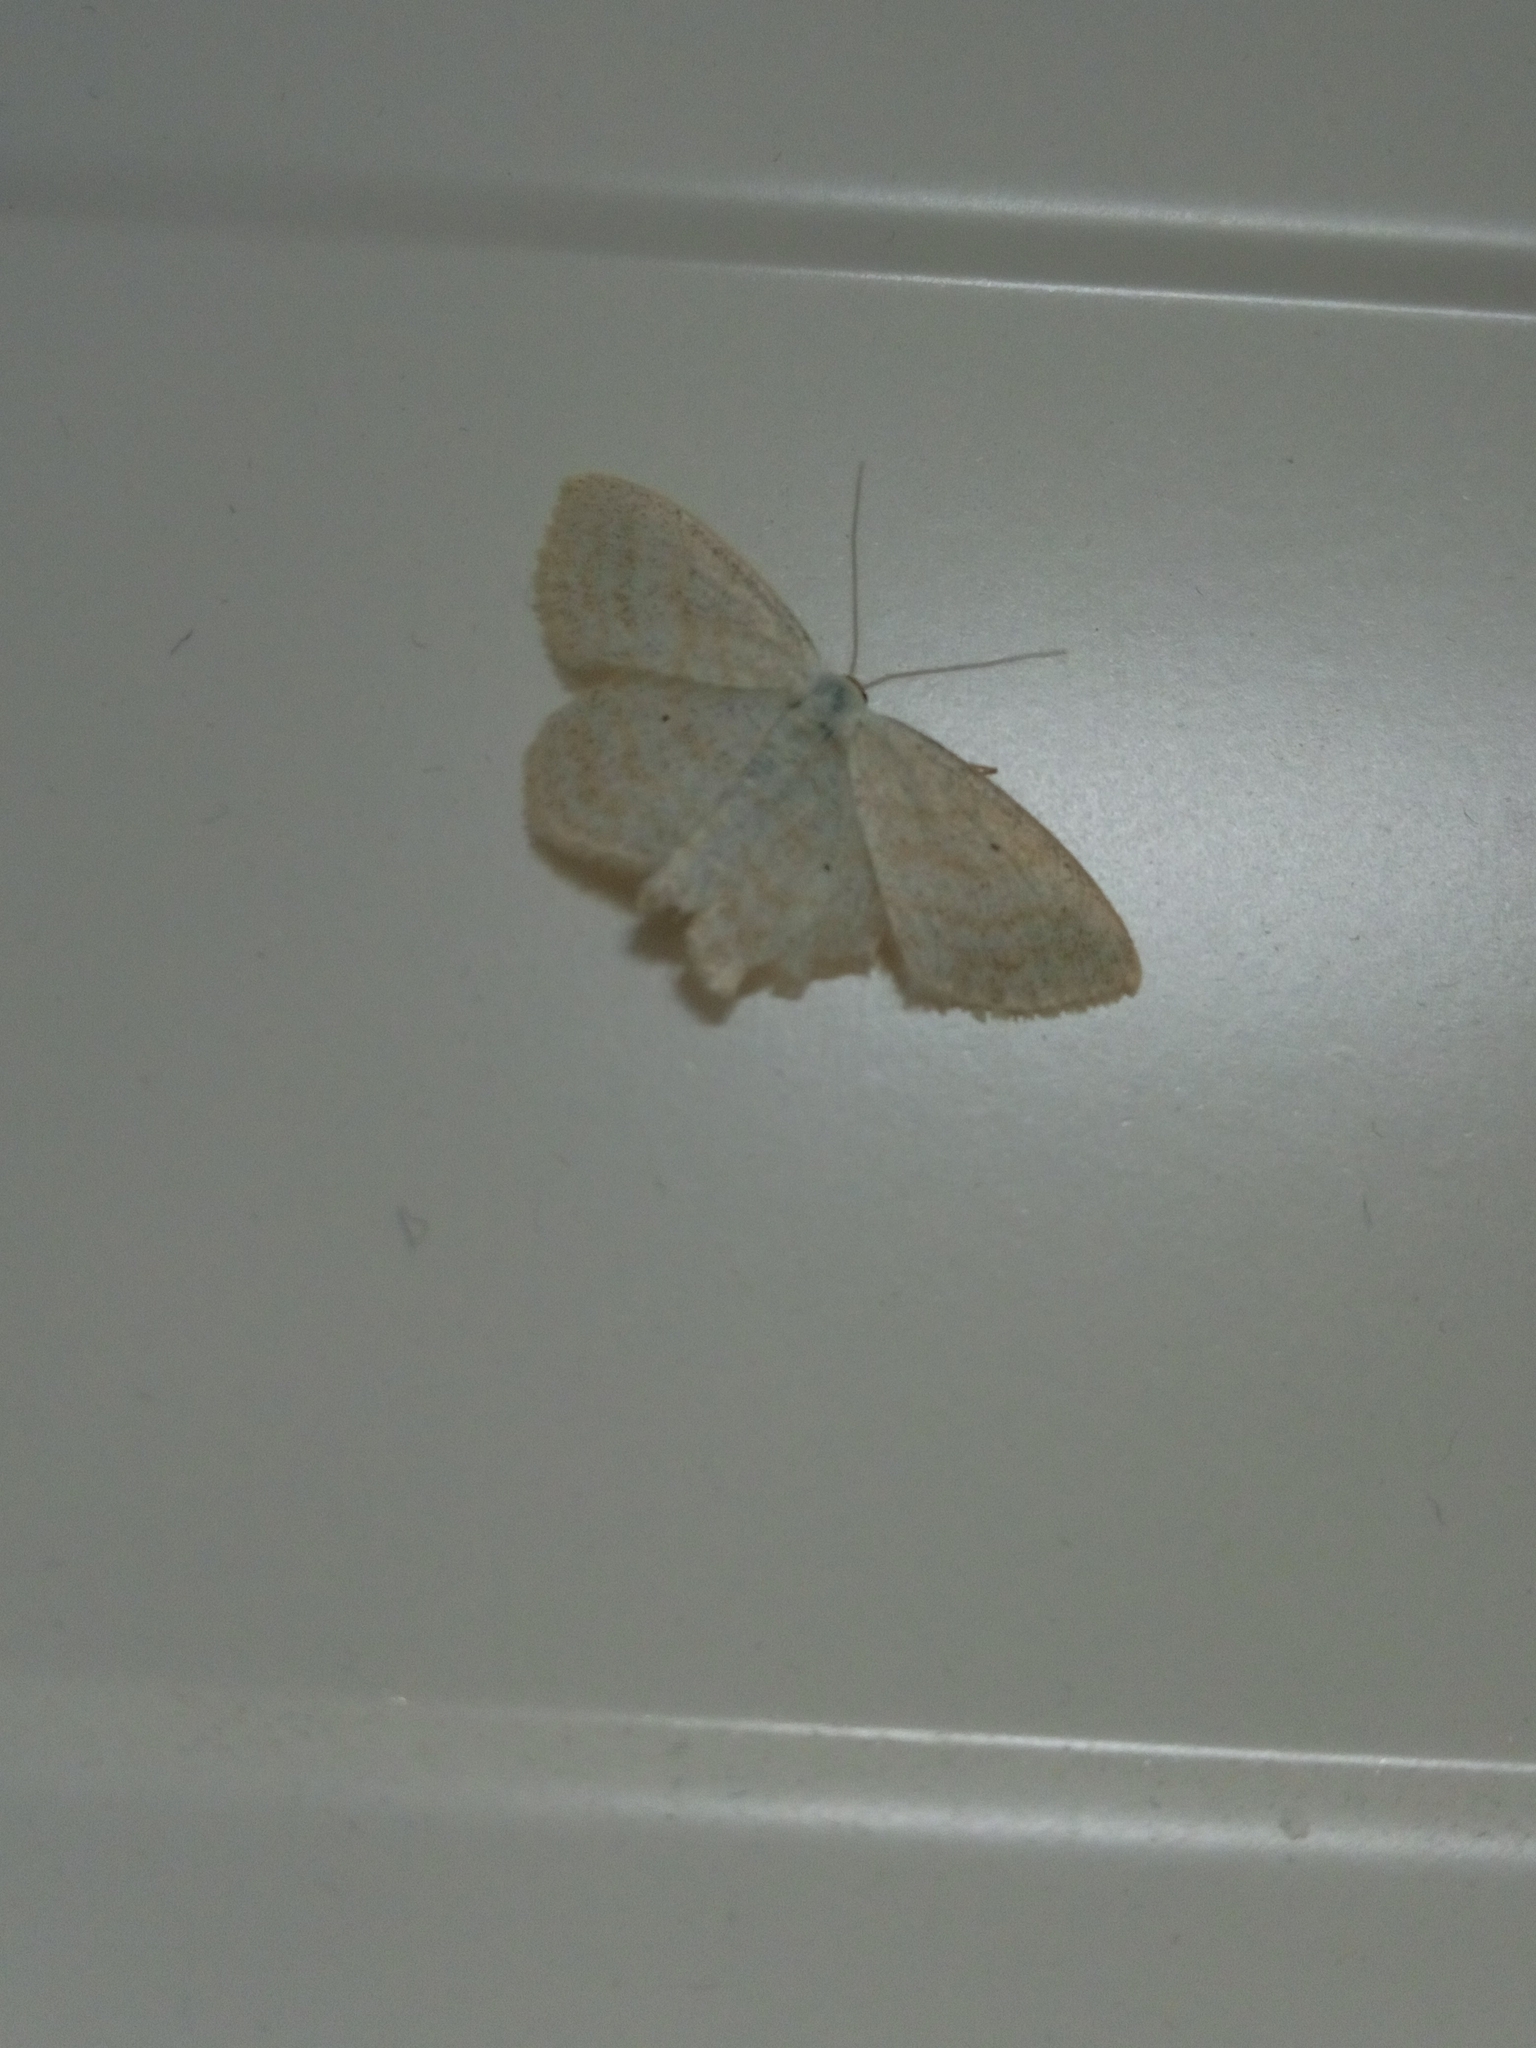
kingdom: Animalia
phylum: Arthropoda
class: Insecta
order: Lepidoptera
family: Geometridae
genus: Scopula
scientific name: Scopula immutata
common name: Lesser cream wave
